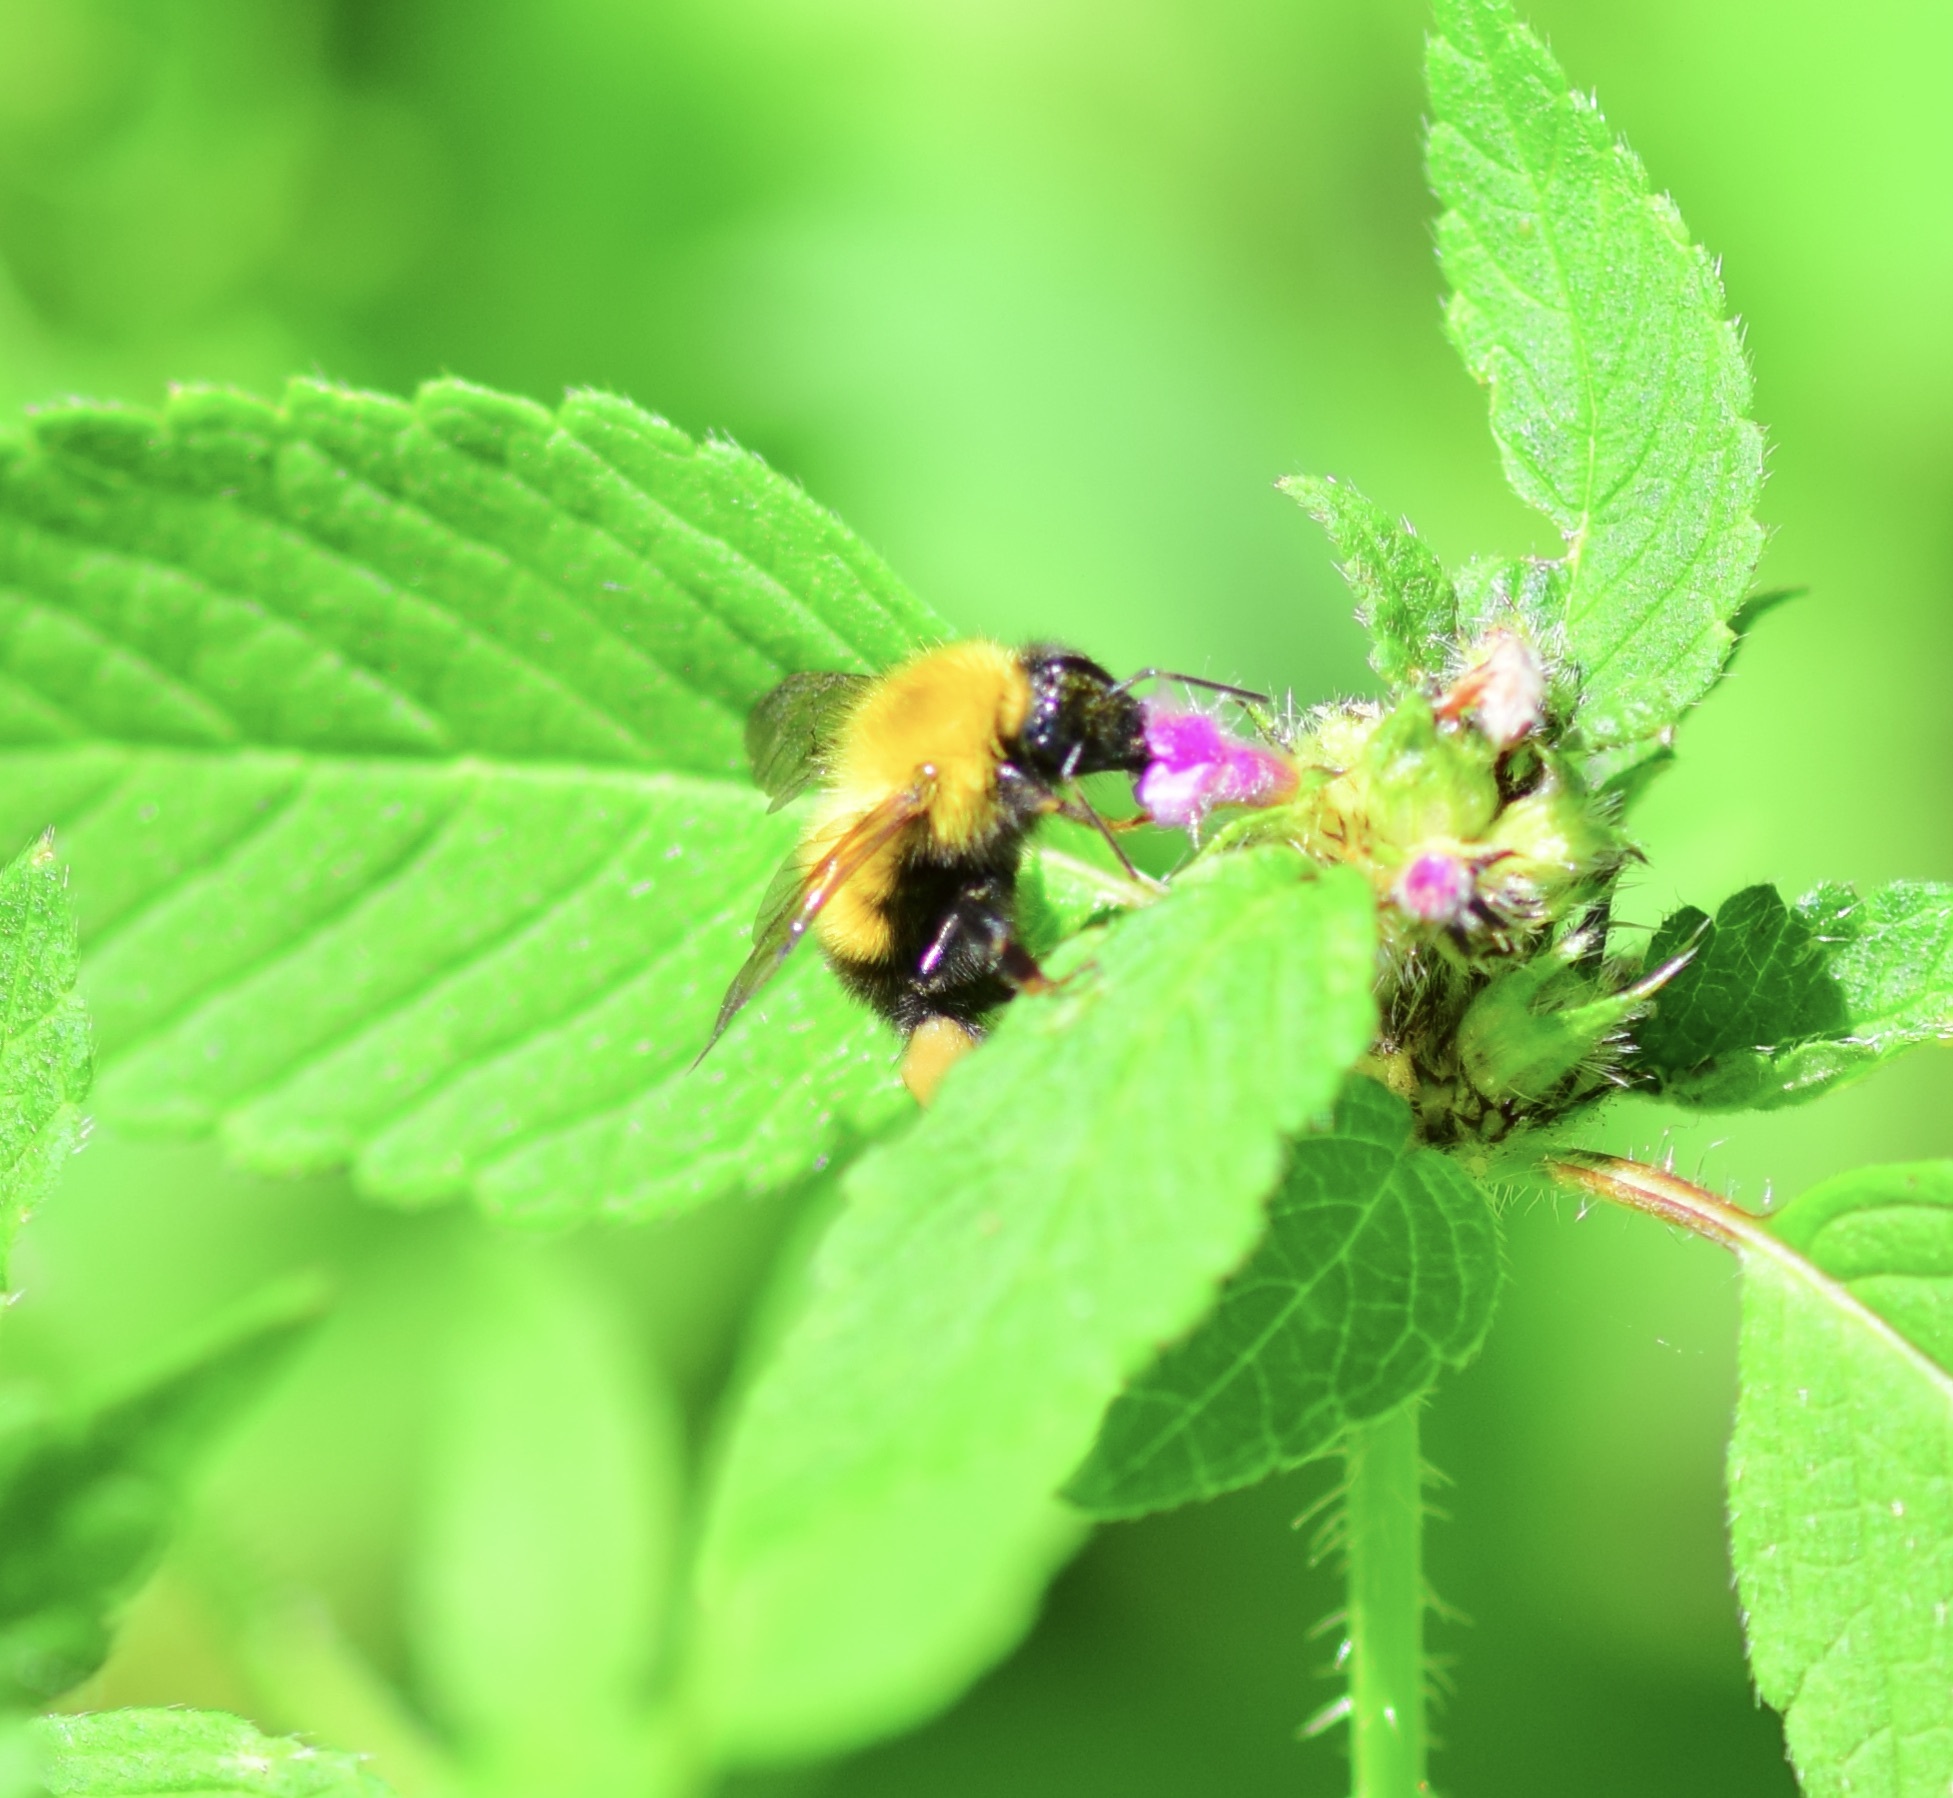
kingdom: Animalia
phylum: Arthropoda
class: Insecta
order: Hymenoptera
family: Apidae
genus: Bombus
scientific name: Bombus perplexus
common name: Confusing bumble bee
